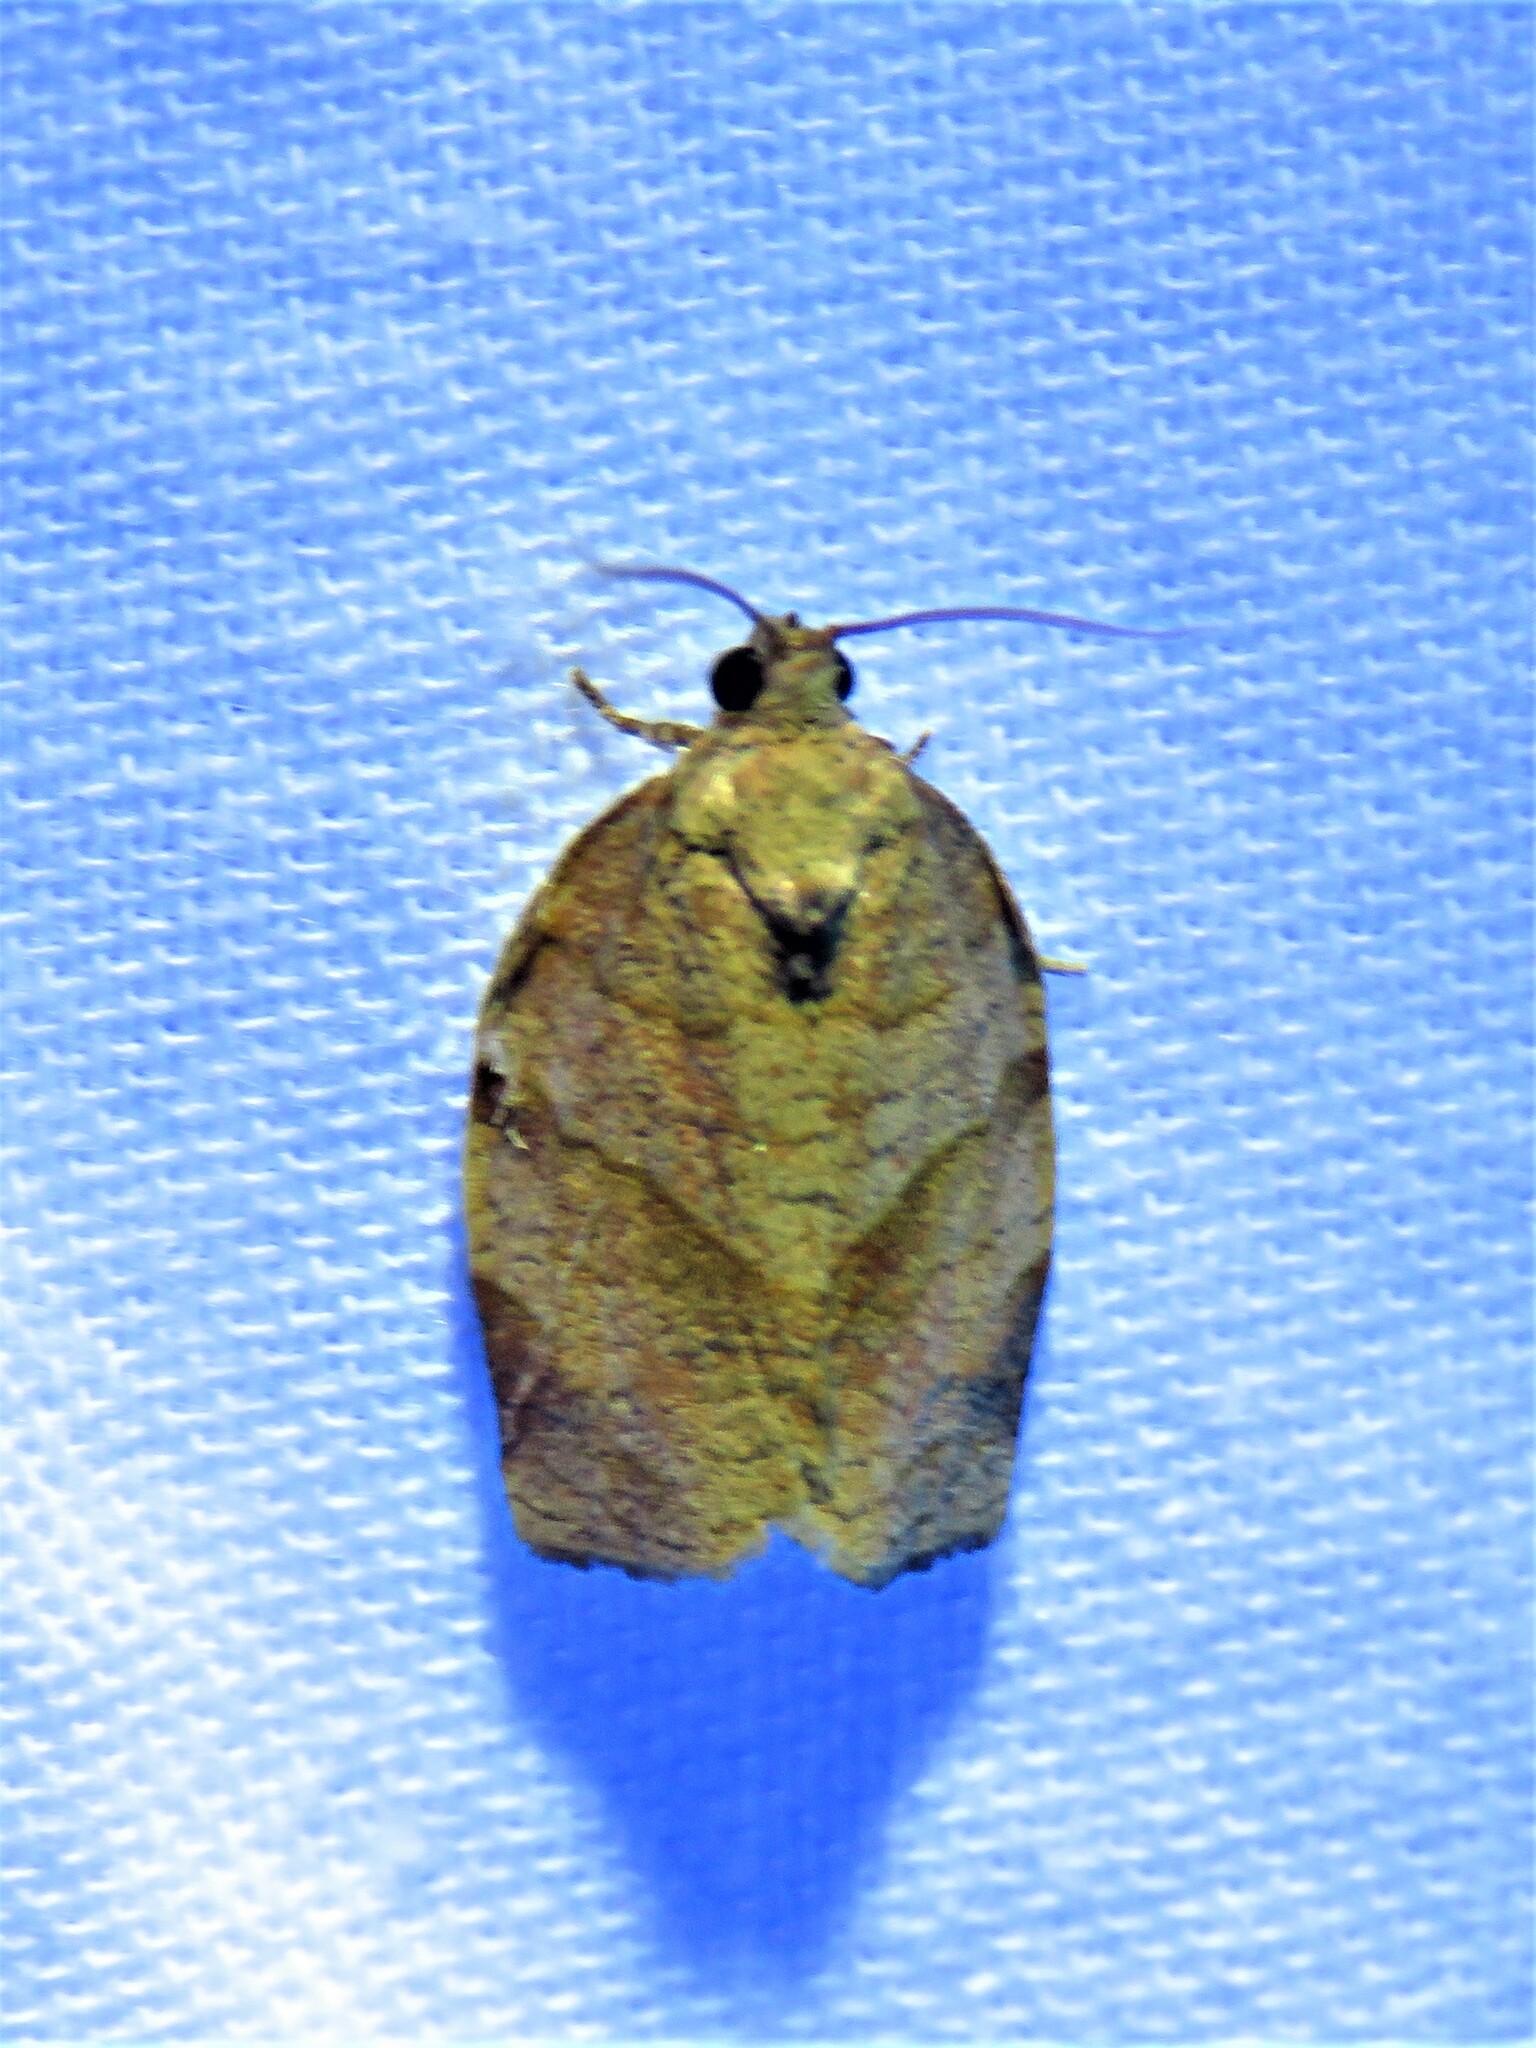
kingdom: Animalia
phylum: Arthropoda
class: Insecta
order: Lepidoptera
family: Tortricidae
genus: Choristoneura
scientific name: Choristoneura rosaceana
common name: Oblique-banded leafroller moth
